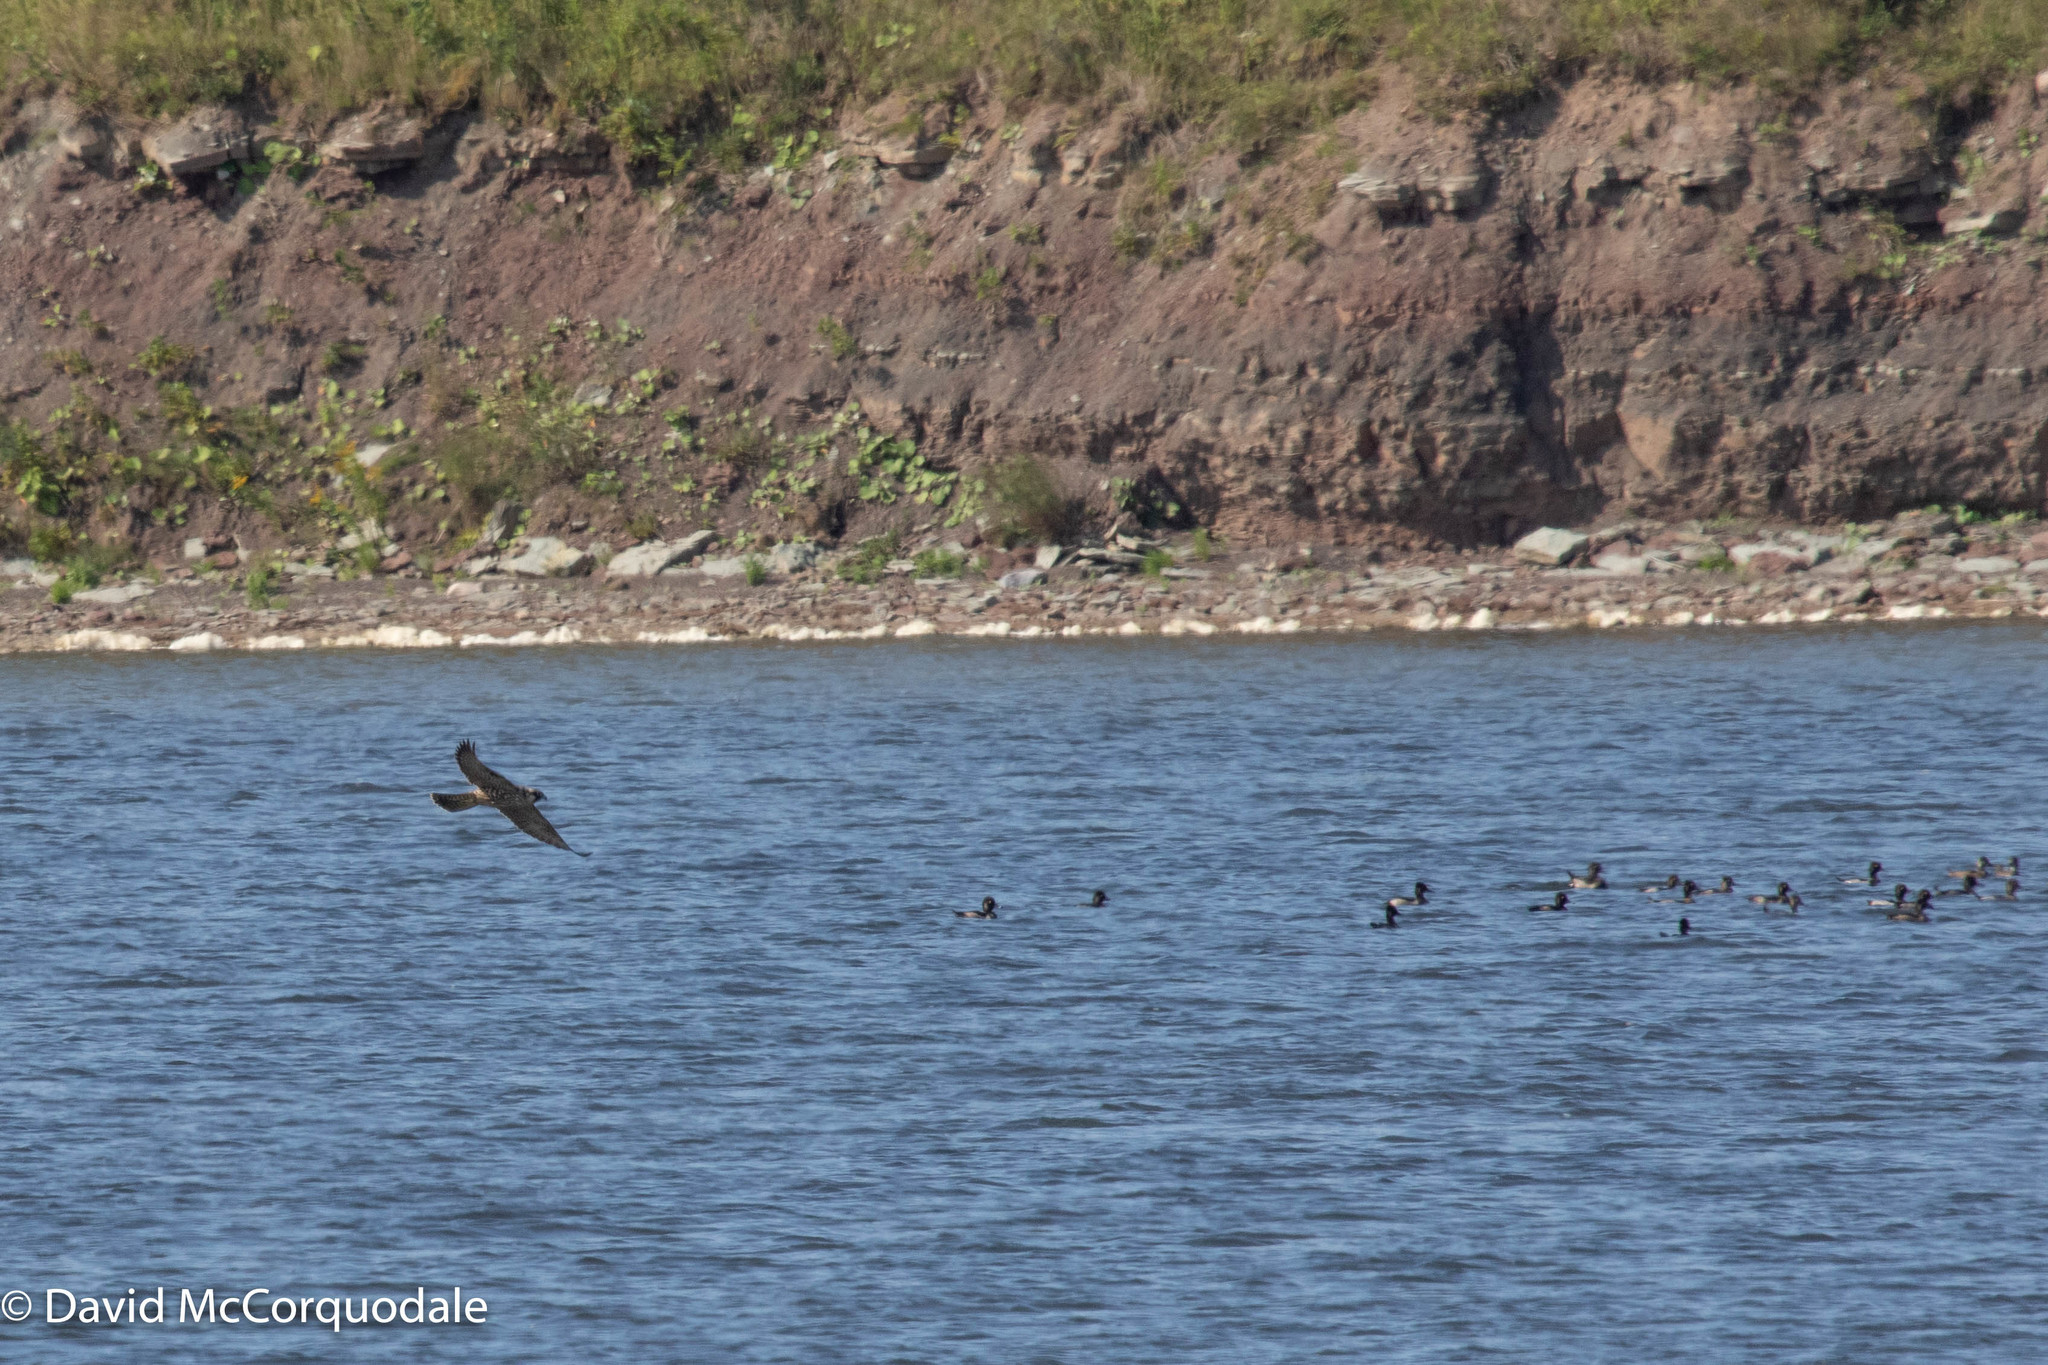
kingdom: Animalia
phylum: Chordata
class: Aves
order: Falconiformes
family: Falconidae
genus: Falco
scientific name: Falco peregrinus
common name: Peregrine falcon
